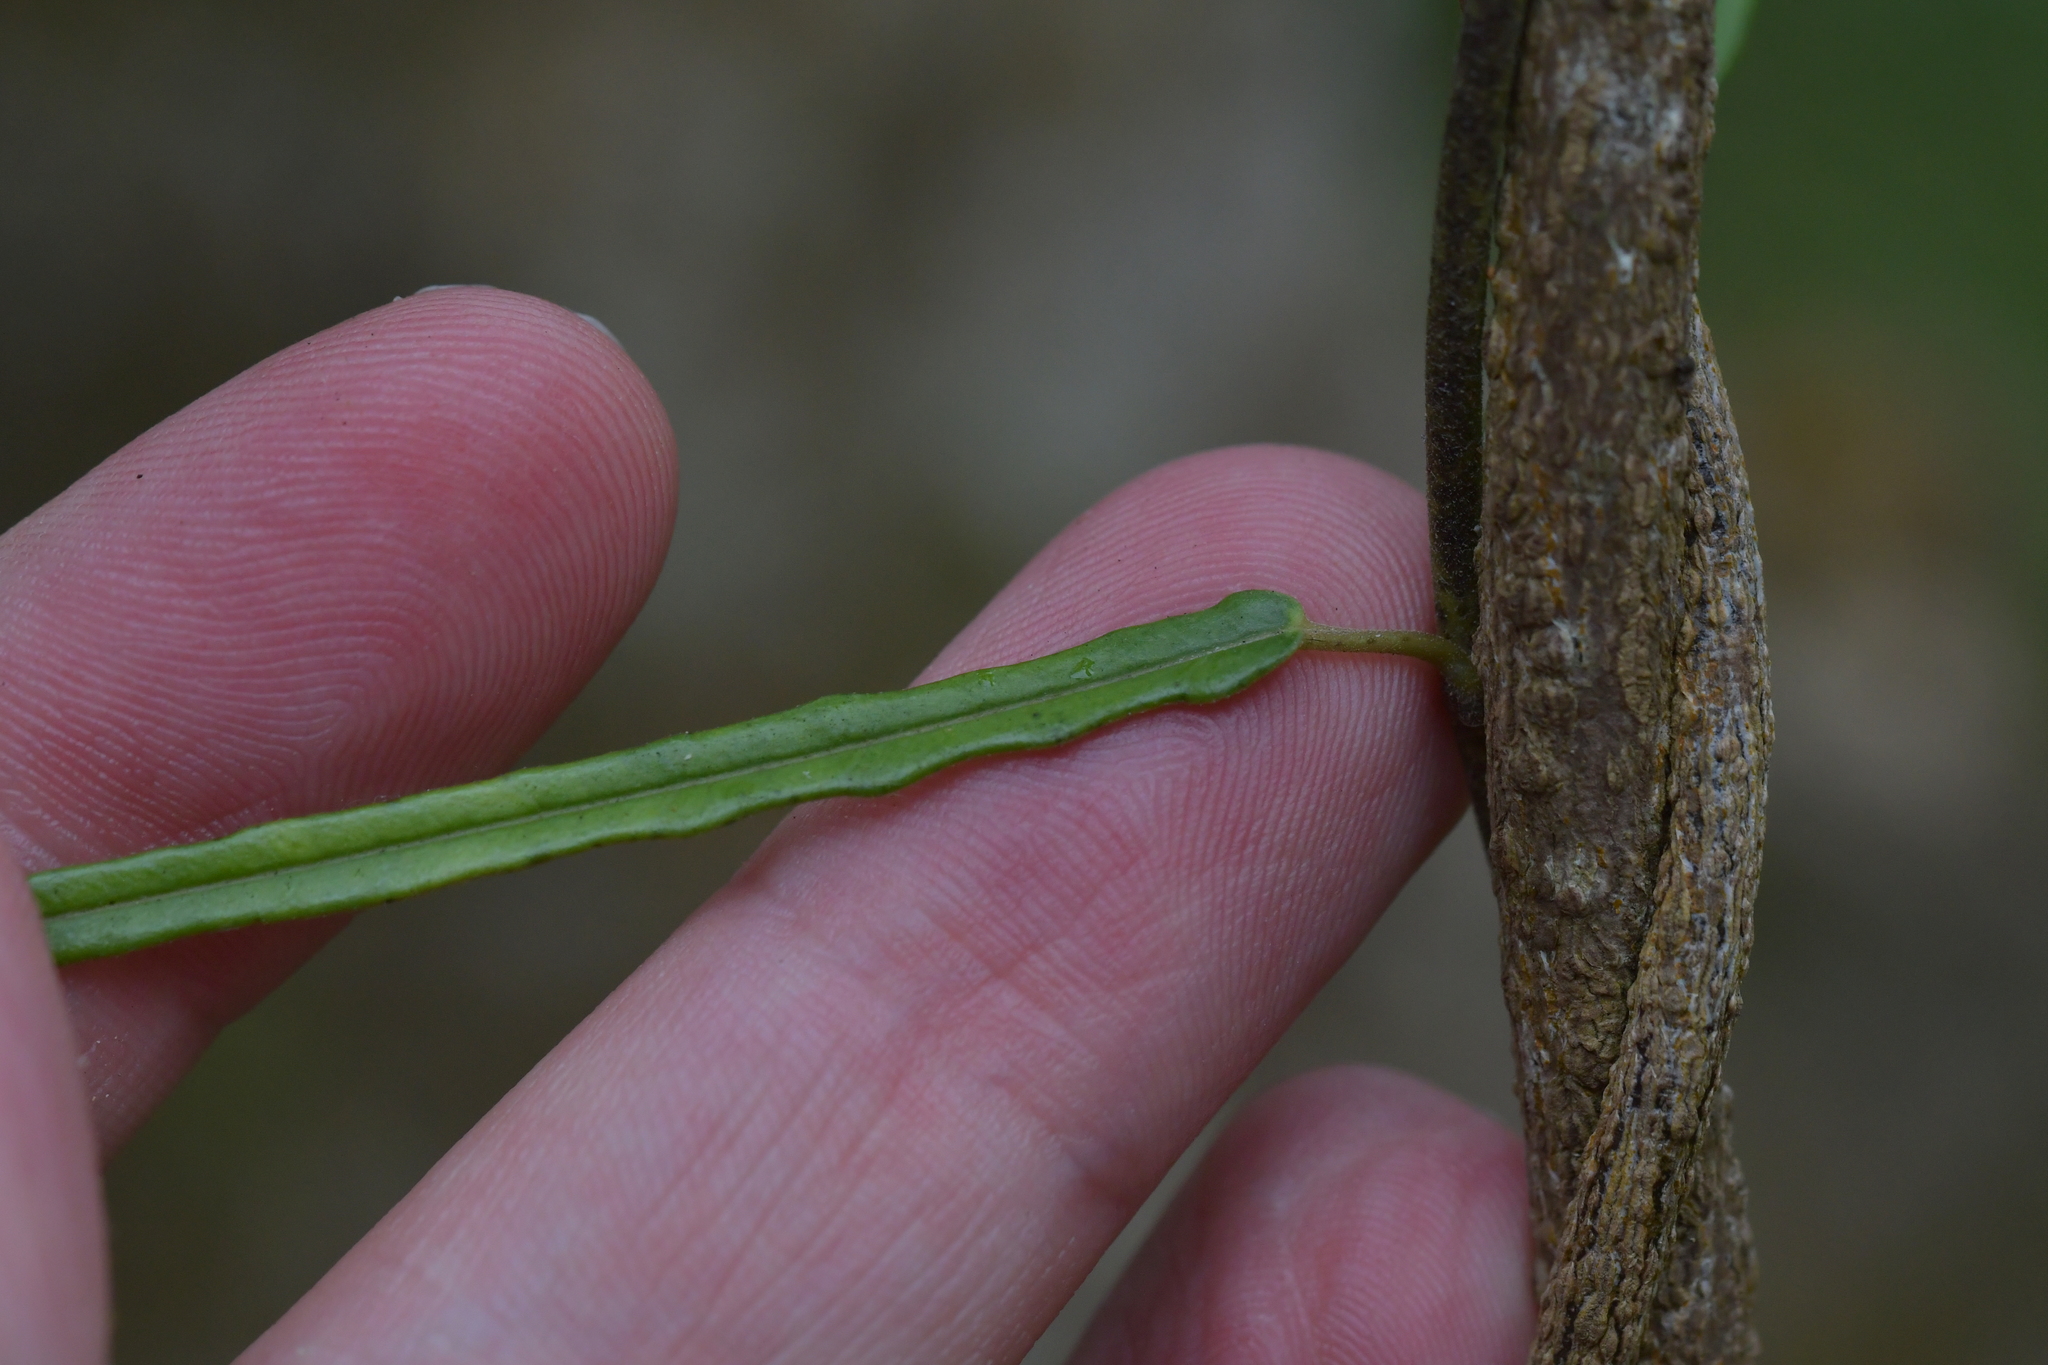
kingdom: Plantae
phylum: Tracheophyta
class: Magnoliopsida
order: Gentianales
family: Apocynaceae
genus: Parsonsia
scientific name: Parsonsia capsularis
